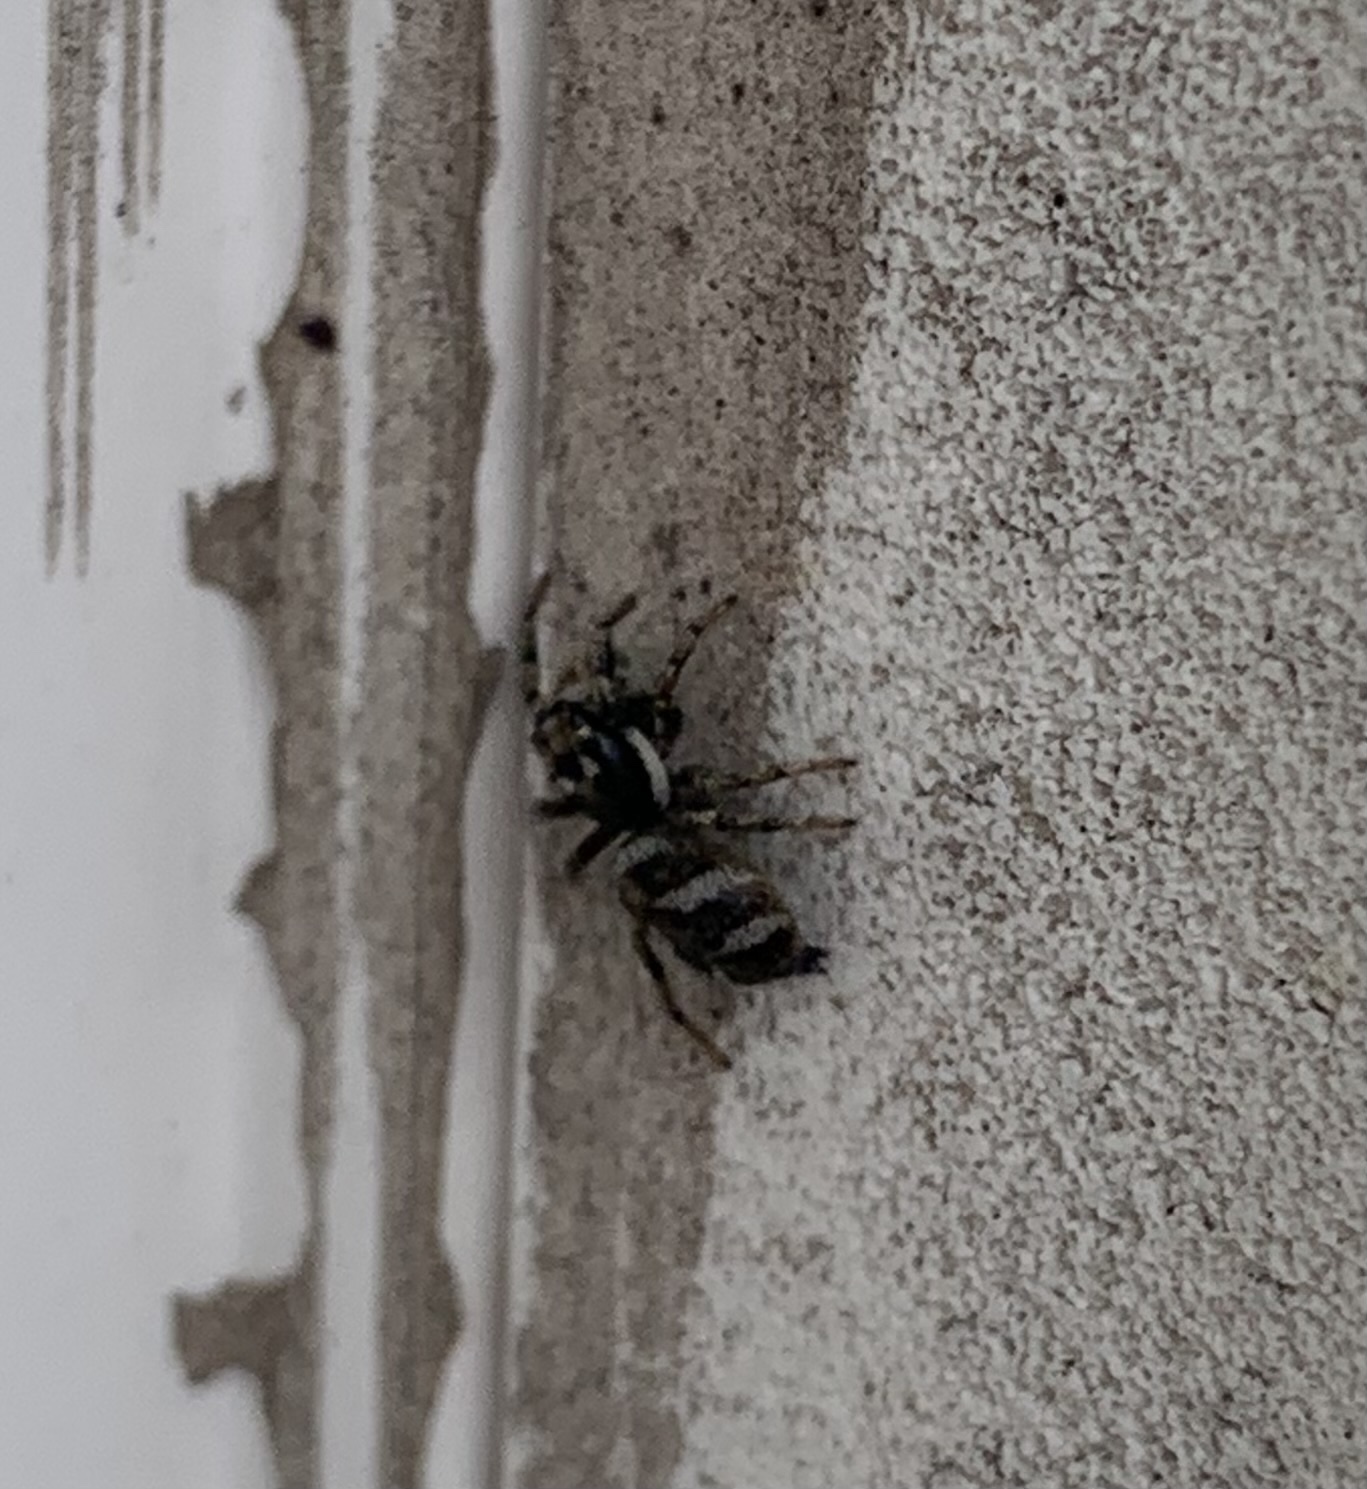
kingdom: Animalia
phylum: Arthropoda
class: Arachnida
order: Araneae
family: Salticidae
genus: Salticus
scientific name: Salticus scenicus
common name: Zebra jumper
